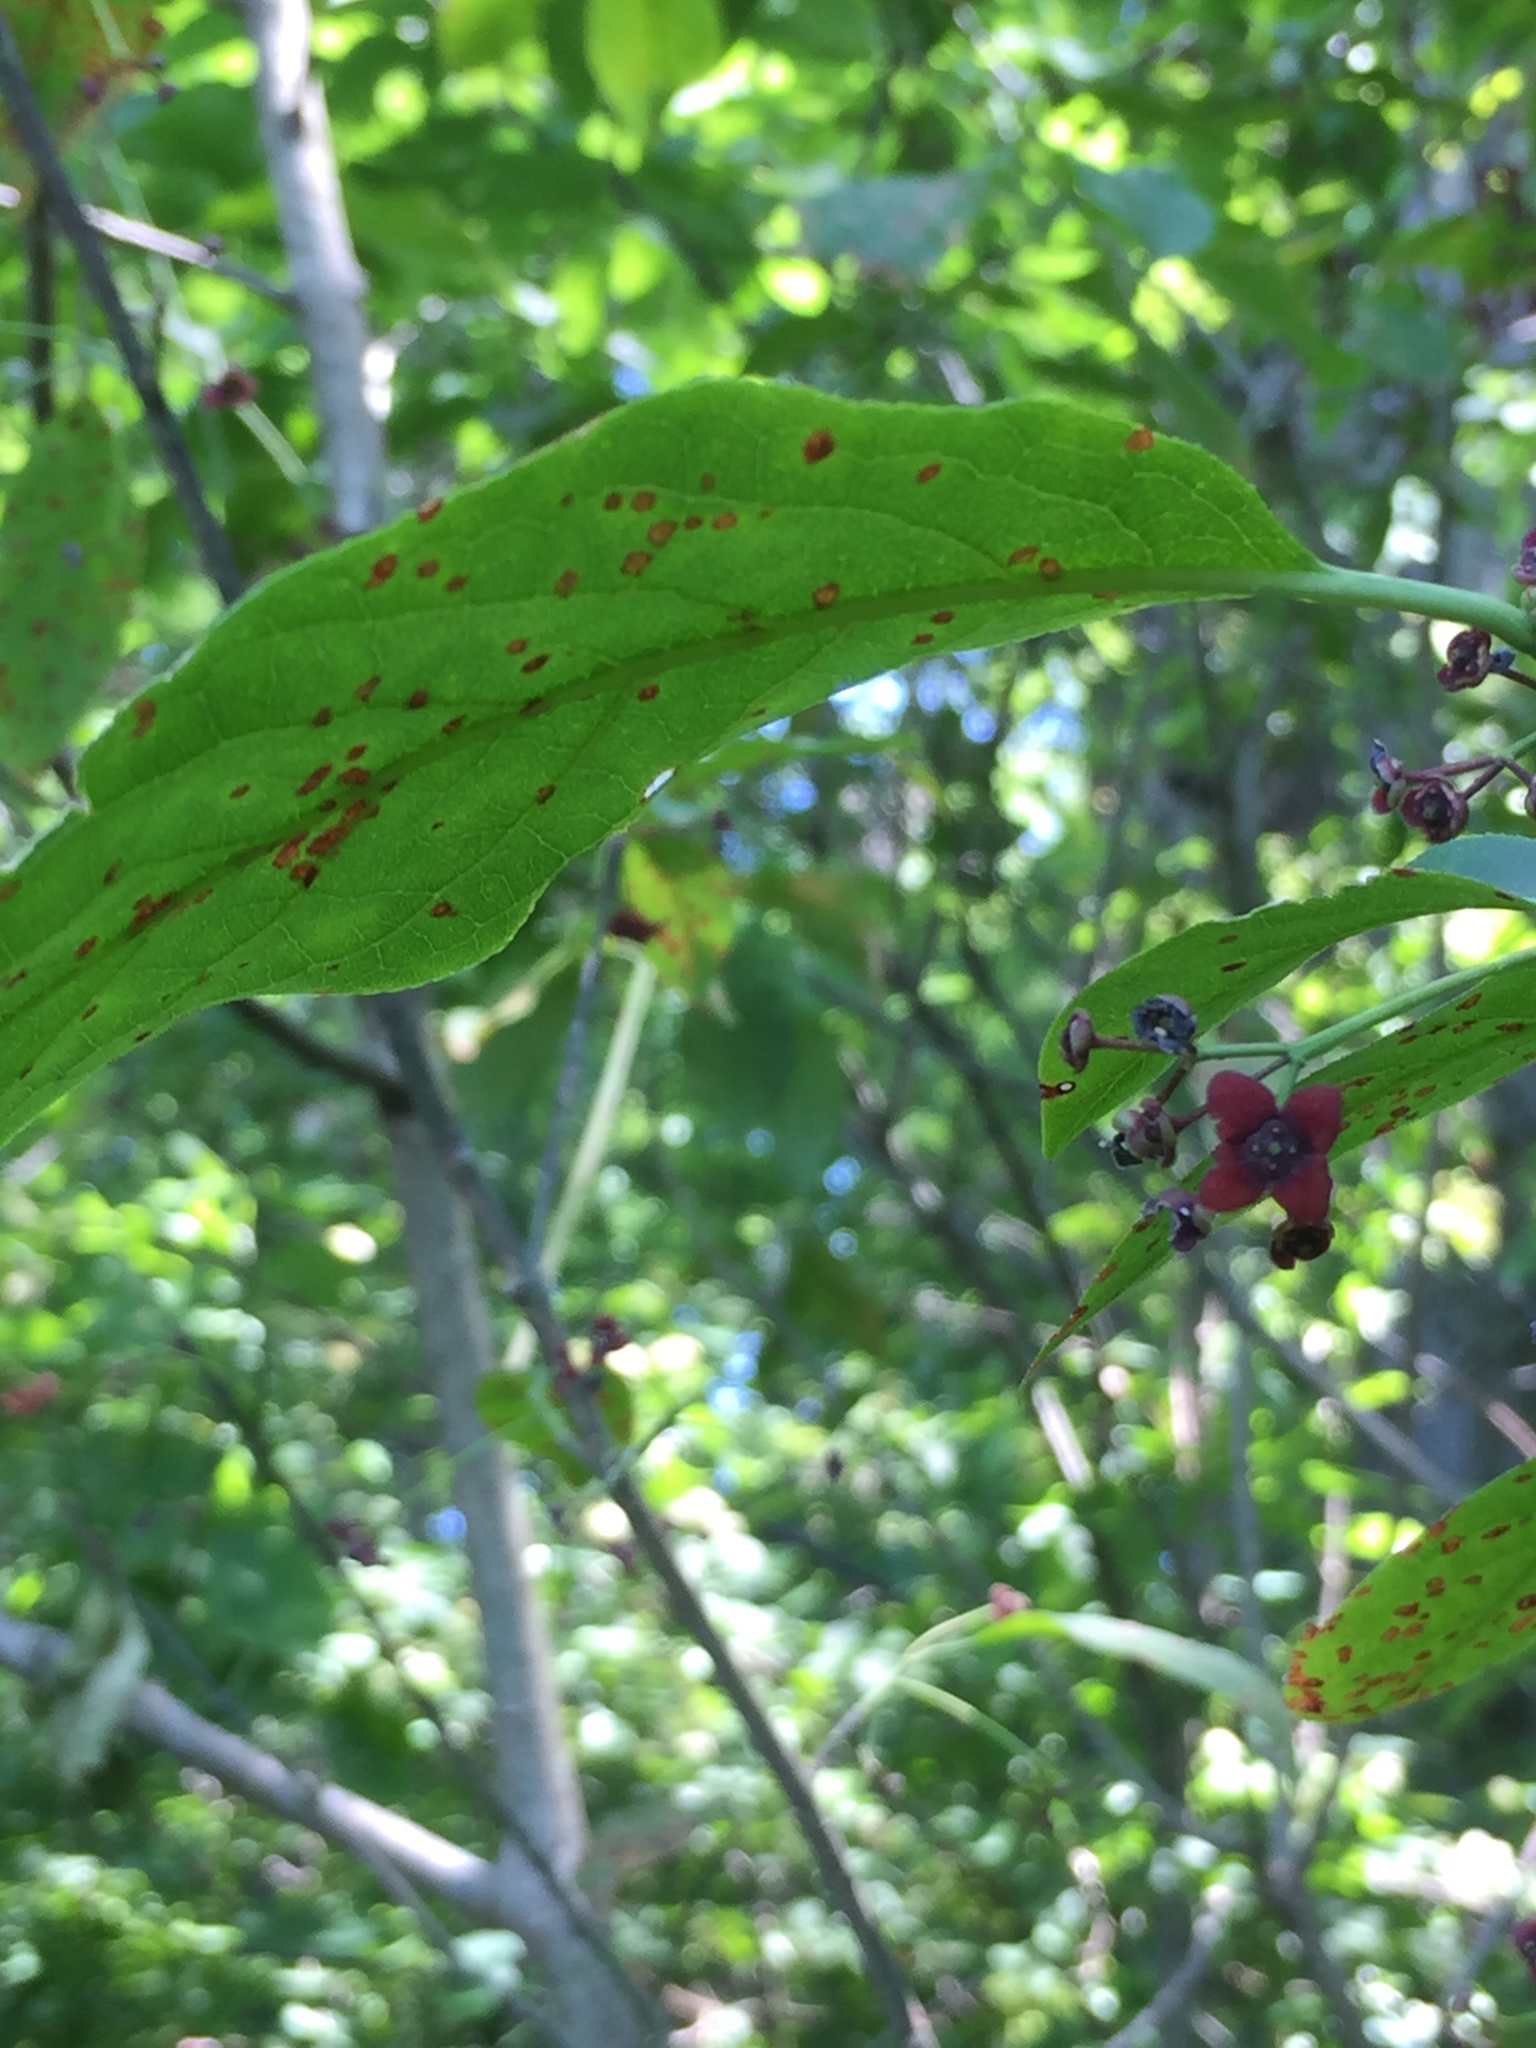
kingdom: Plantae
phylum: Tracheophyta
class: Magnoliopsida
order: Celastrales
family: Celastraceae
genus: Euonymus
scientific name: Euonymus atropurpureus
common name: Eastern wahoo
